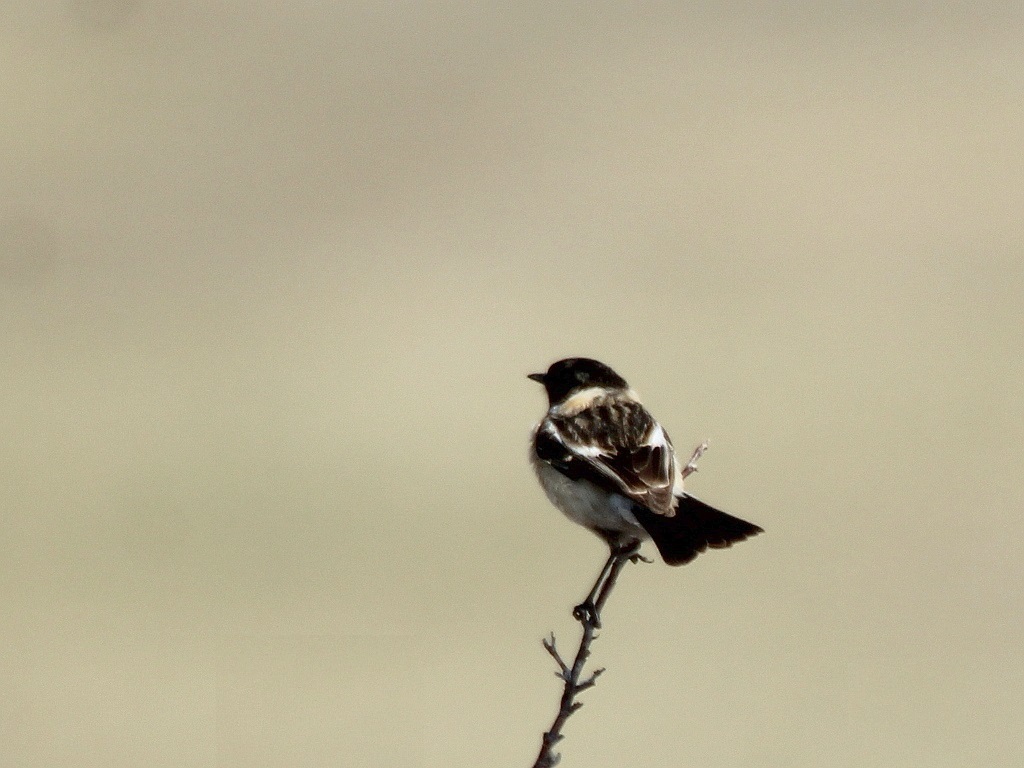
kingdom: Animalia
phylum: Chordata
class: Aves
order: Passeriformes
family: Muscicapidae
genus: Saxicola
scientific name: Saxicola maurus
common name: Siberian stonechat
